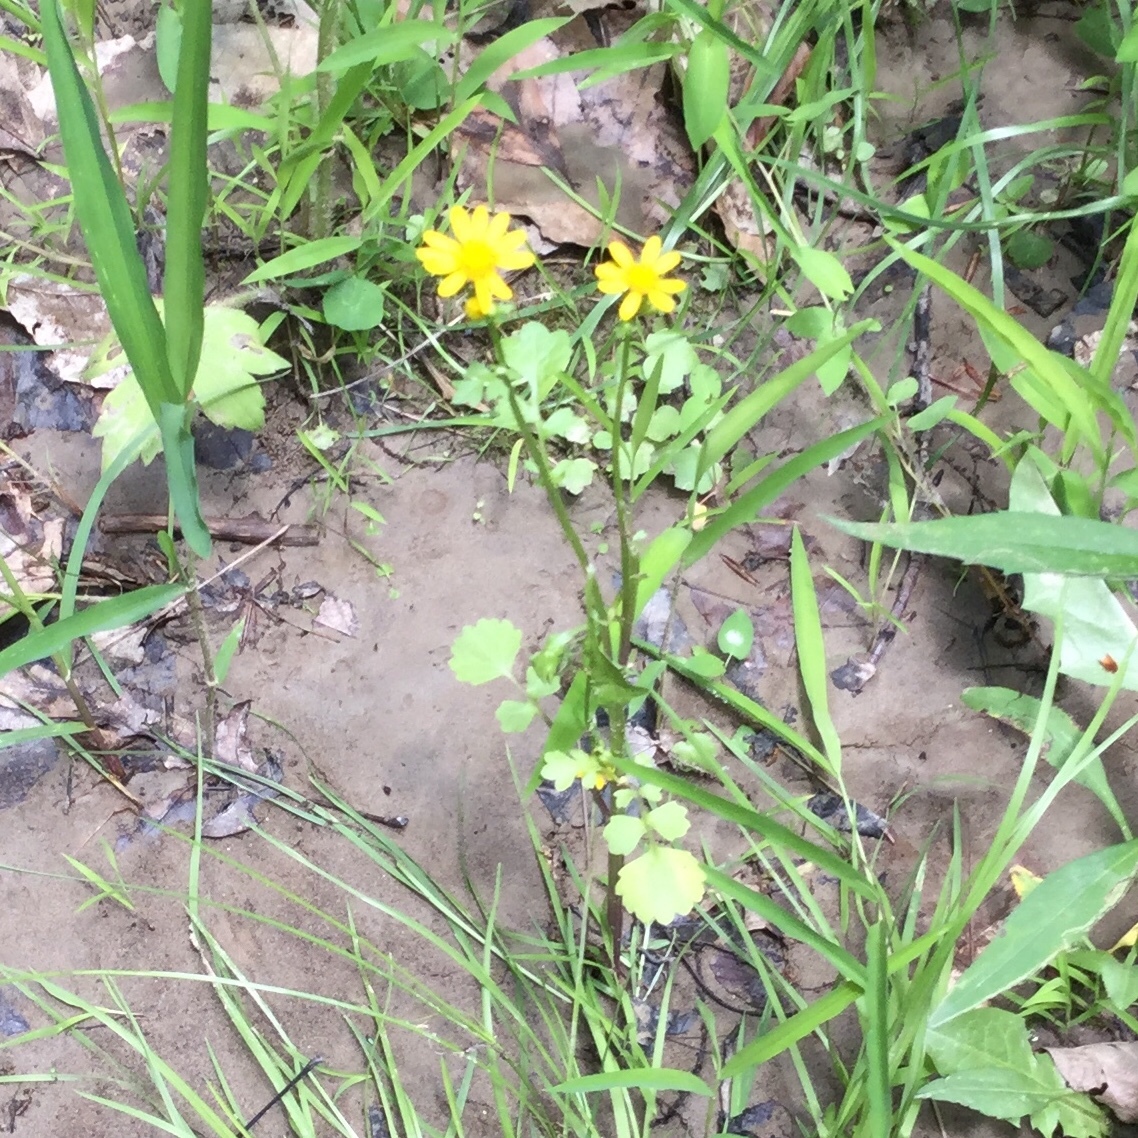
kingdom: Plantae
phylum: Tracheophyta
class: Magnoliopsida
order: Asterales
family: Asteraceae
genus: Packera
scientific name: Packera glabella
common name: Butterweed
